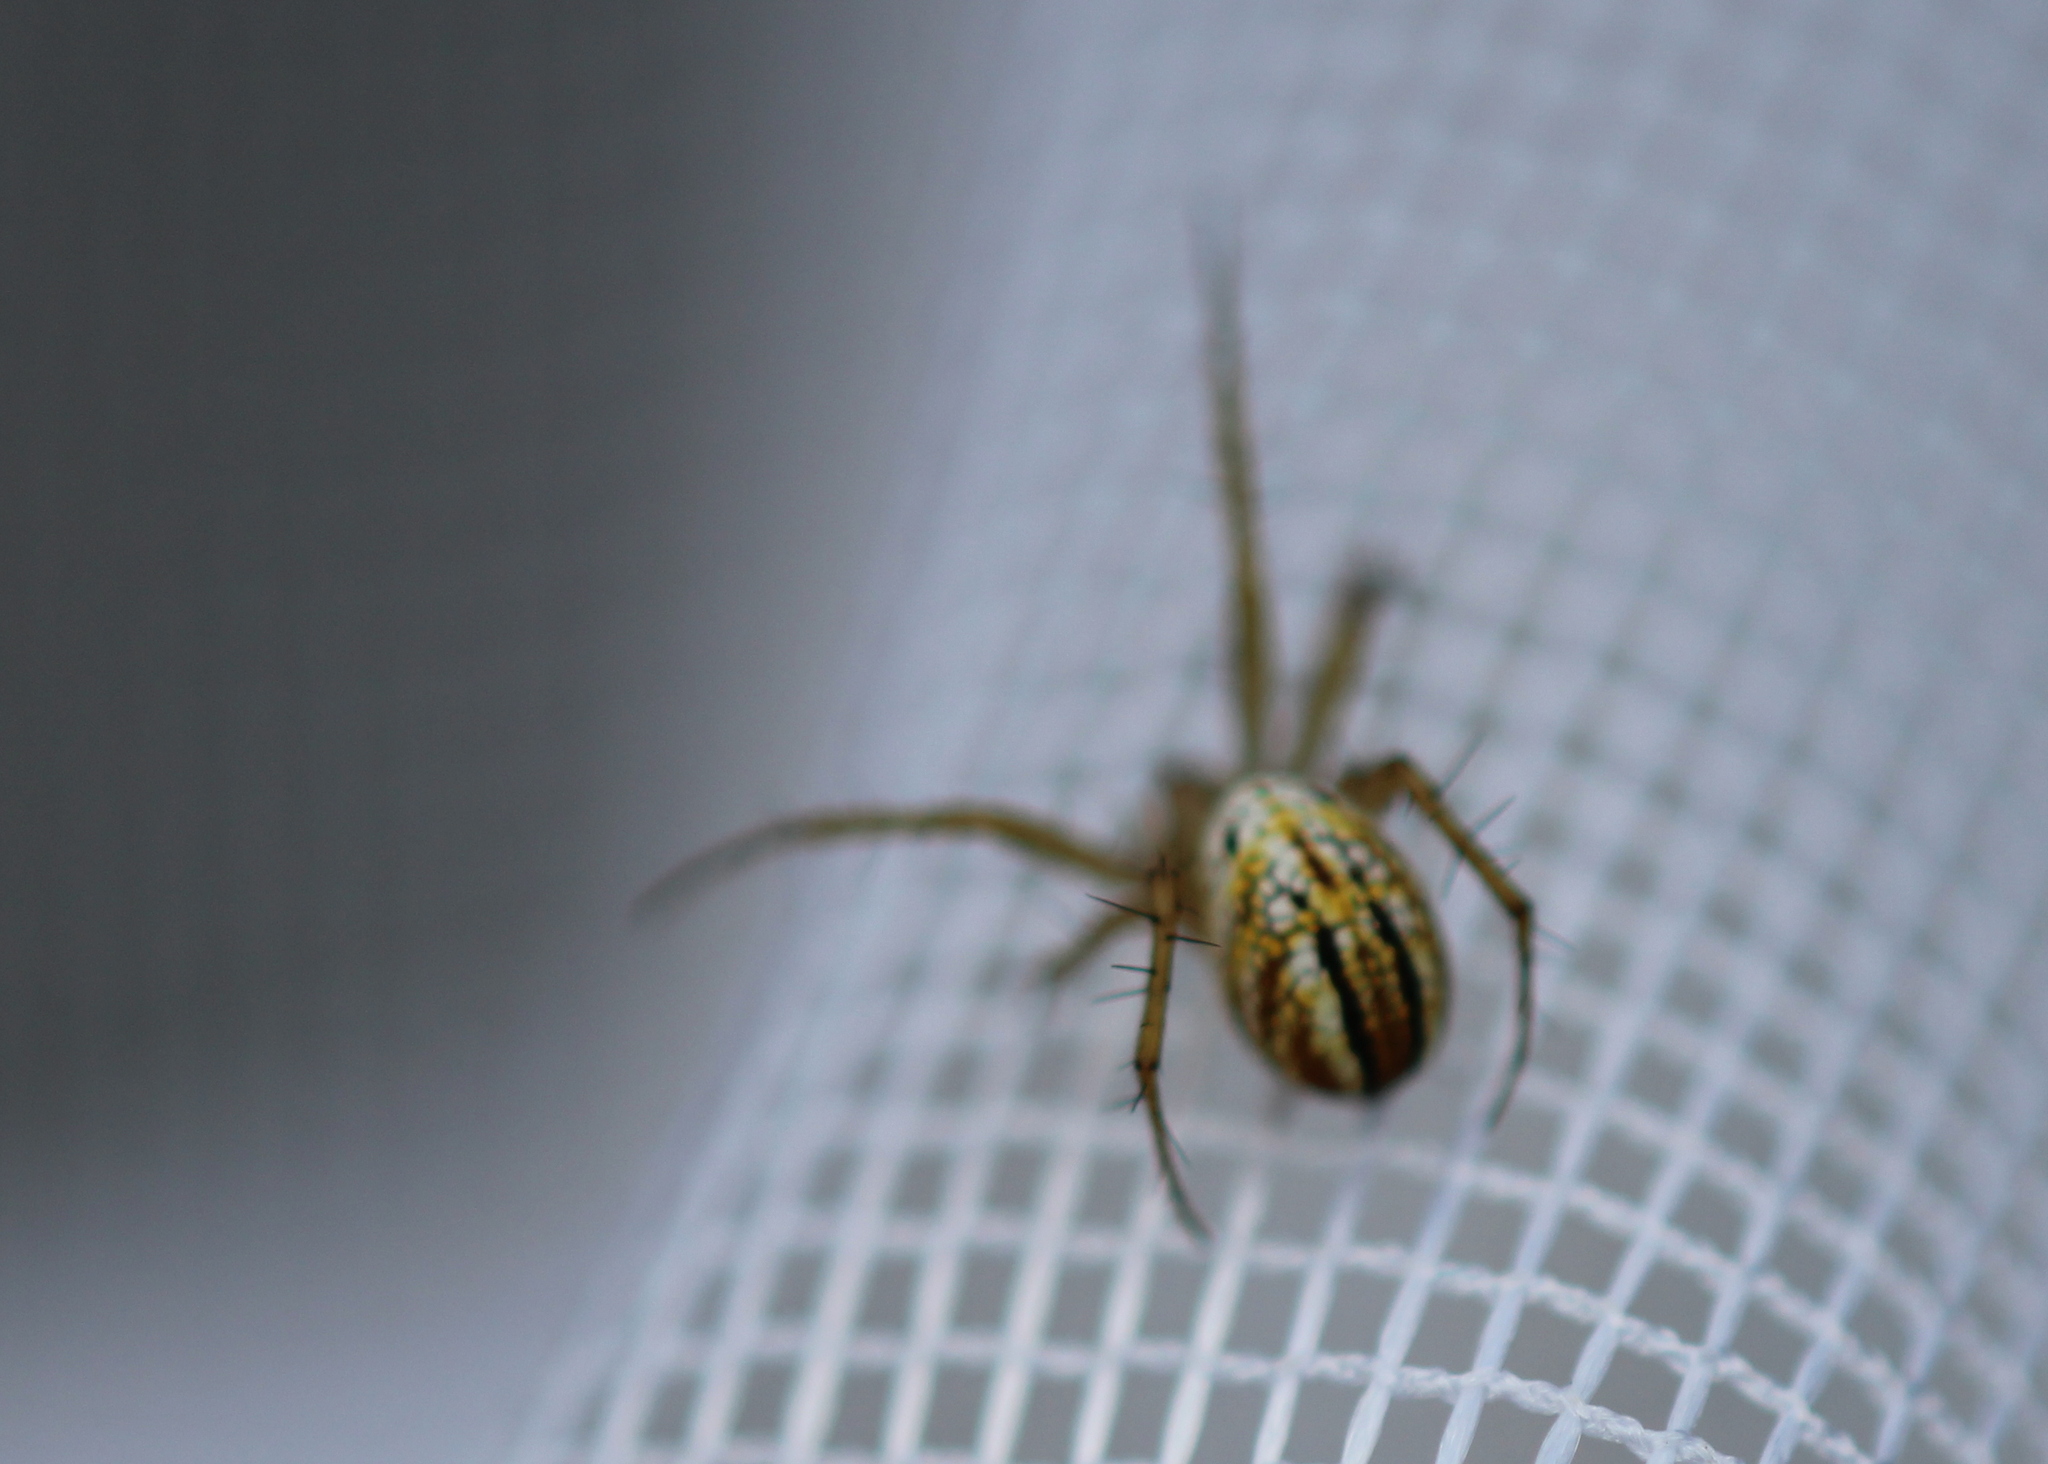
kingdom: Animalia
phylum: Arthropoda
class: Arachnida
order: Araneae
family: Araneidae
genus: Mangora
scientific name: Mangora gibberosa
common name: Lined orbweaver
